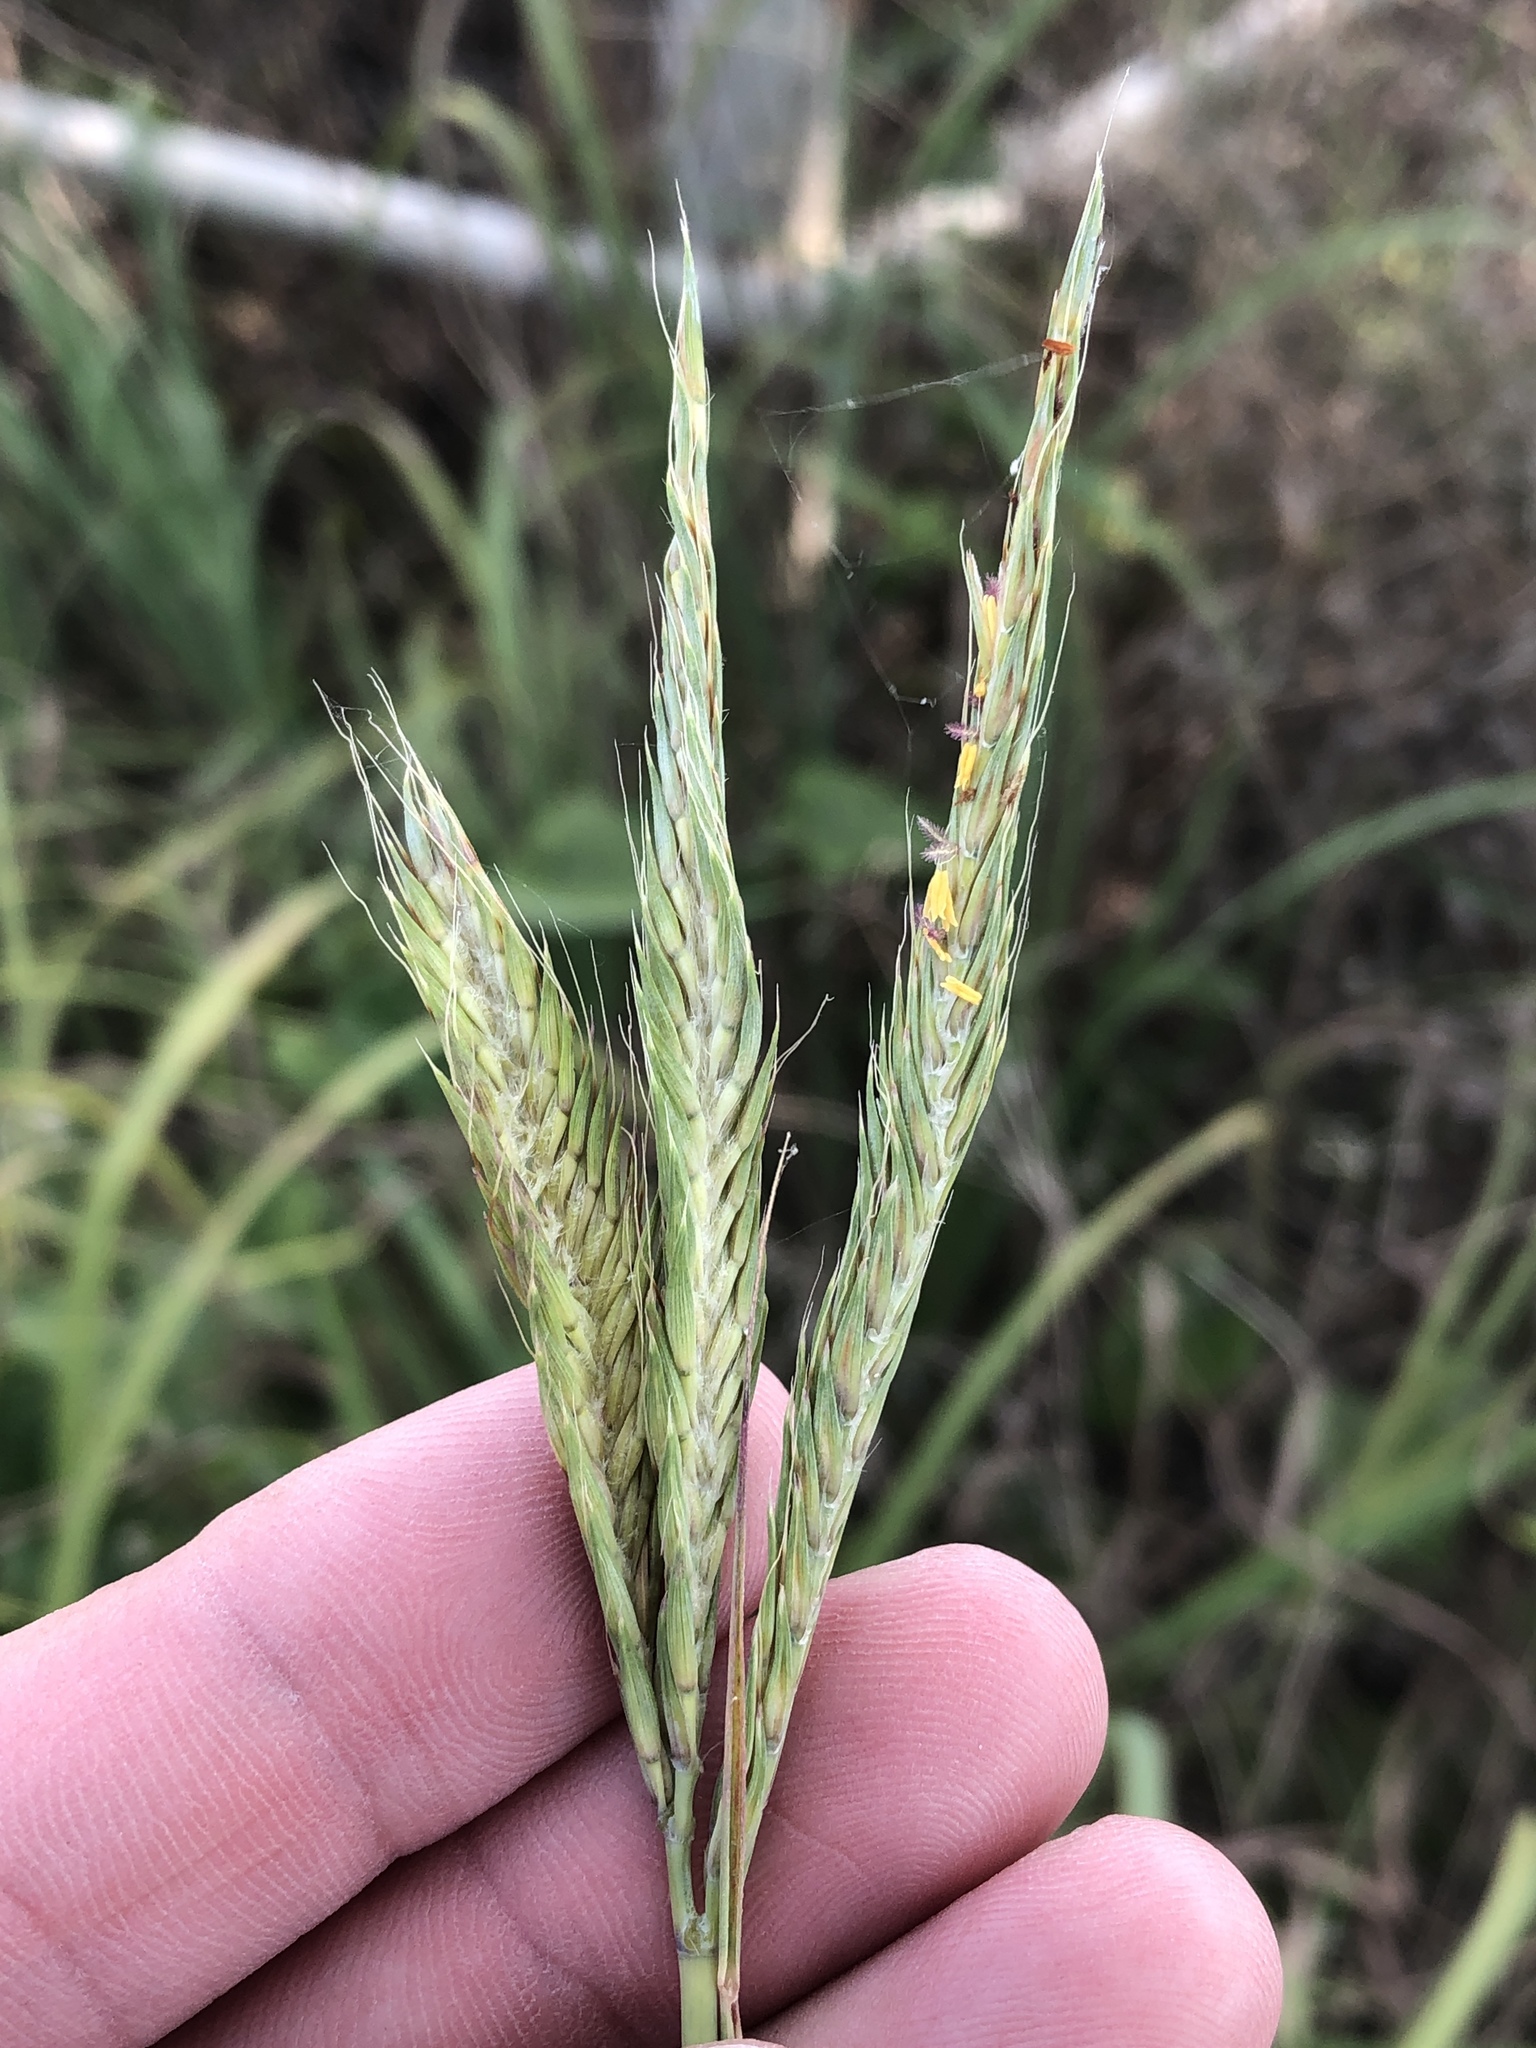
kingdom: Plantae
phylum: Tracheophyta
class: Liliopsida
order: Poales
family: Poaceae
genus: Andropogon
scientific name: Andropogon gerardi
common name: Big bluestem
